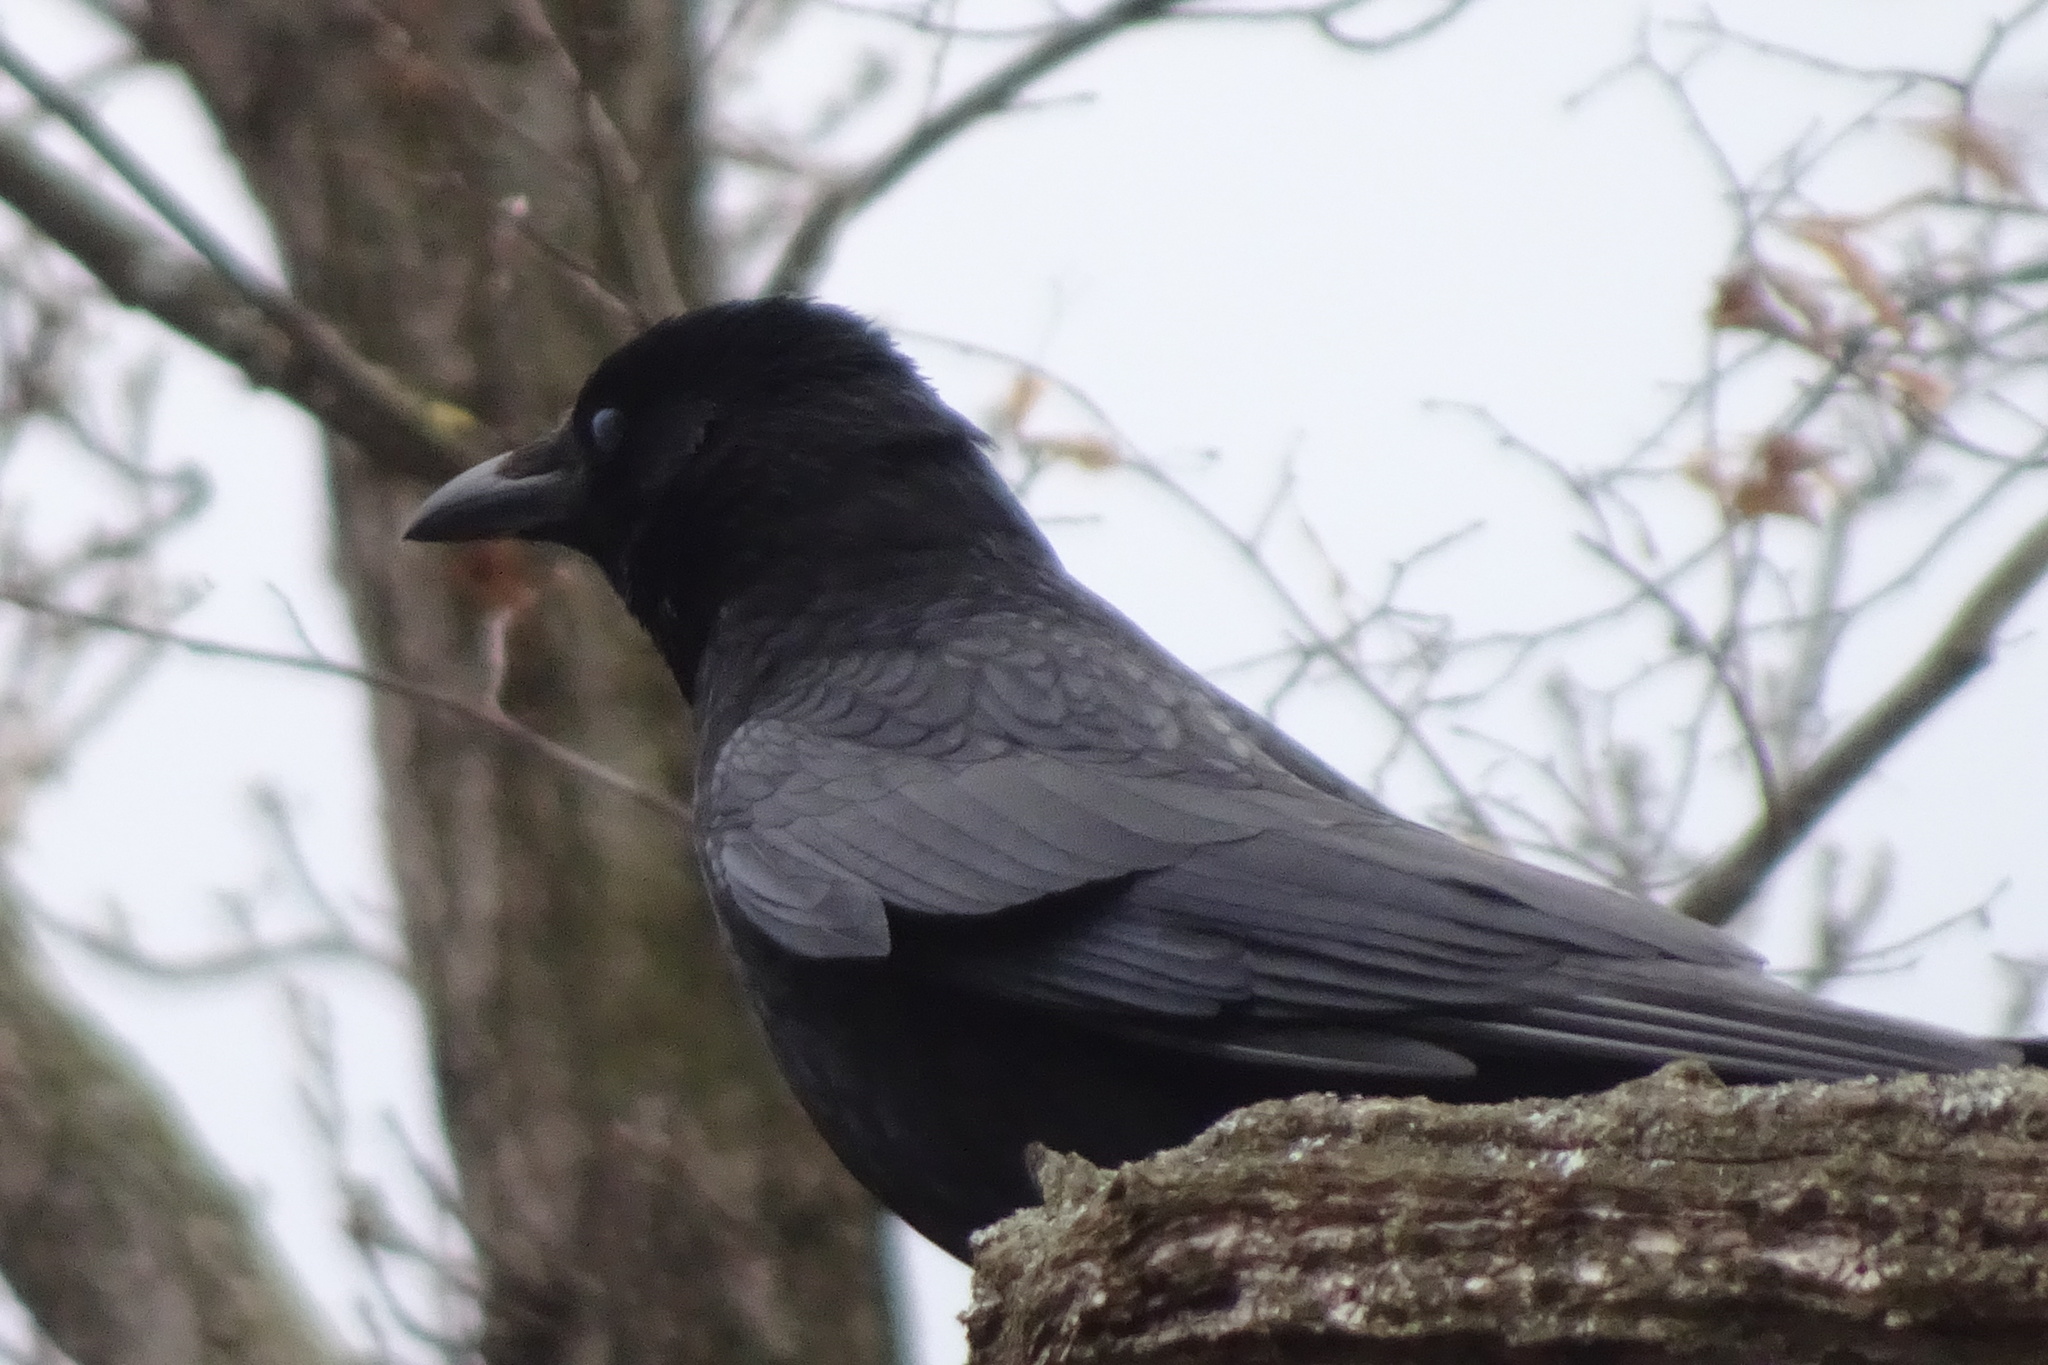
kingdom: Animalia
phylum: Chordata
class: Aves
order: Passeriformes
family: Corvidae
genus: Corvus
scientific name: Corvus corone
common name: Carrion crow
